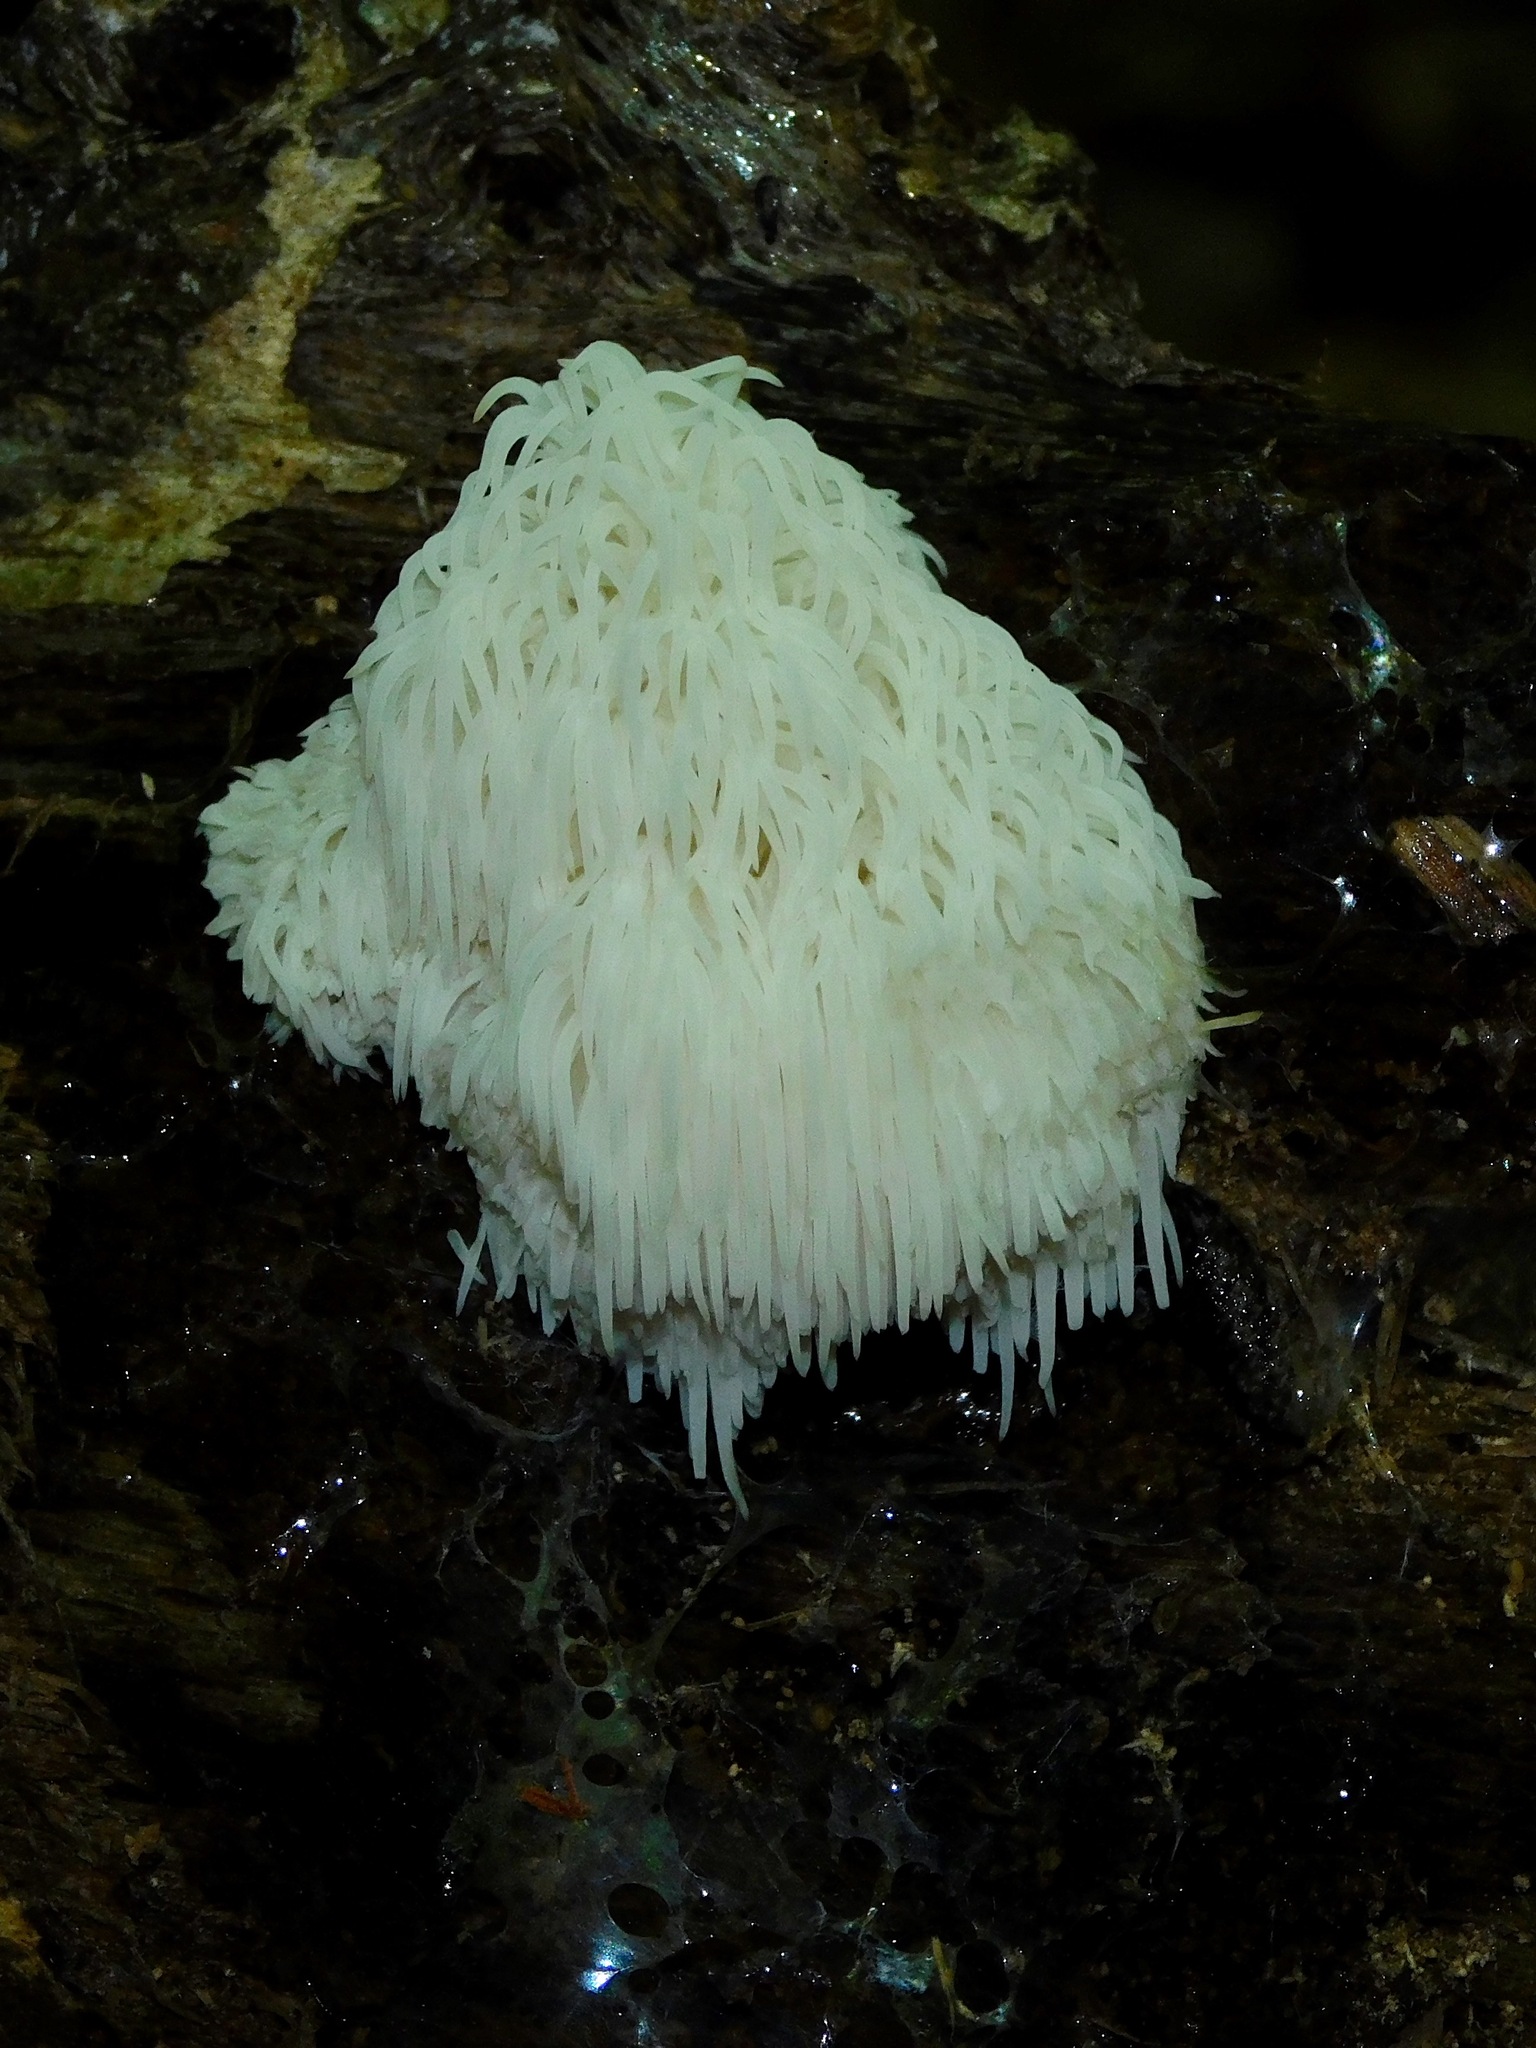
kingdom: Fungi
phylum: Basidiomycota
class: Agaricomycetes
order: Russulales
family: Hericiaceae
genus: Hericium
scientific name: Hericium erinaceus
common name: Bearded tooth
